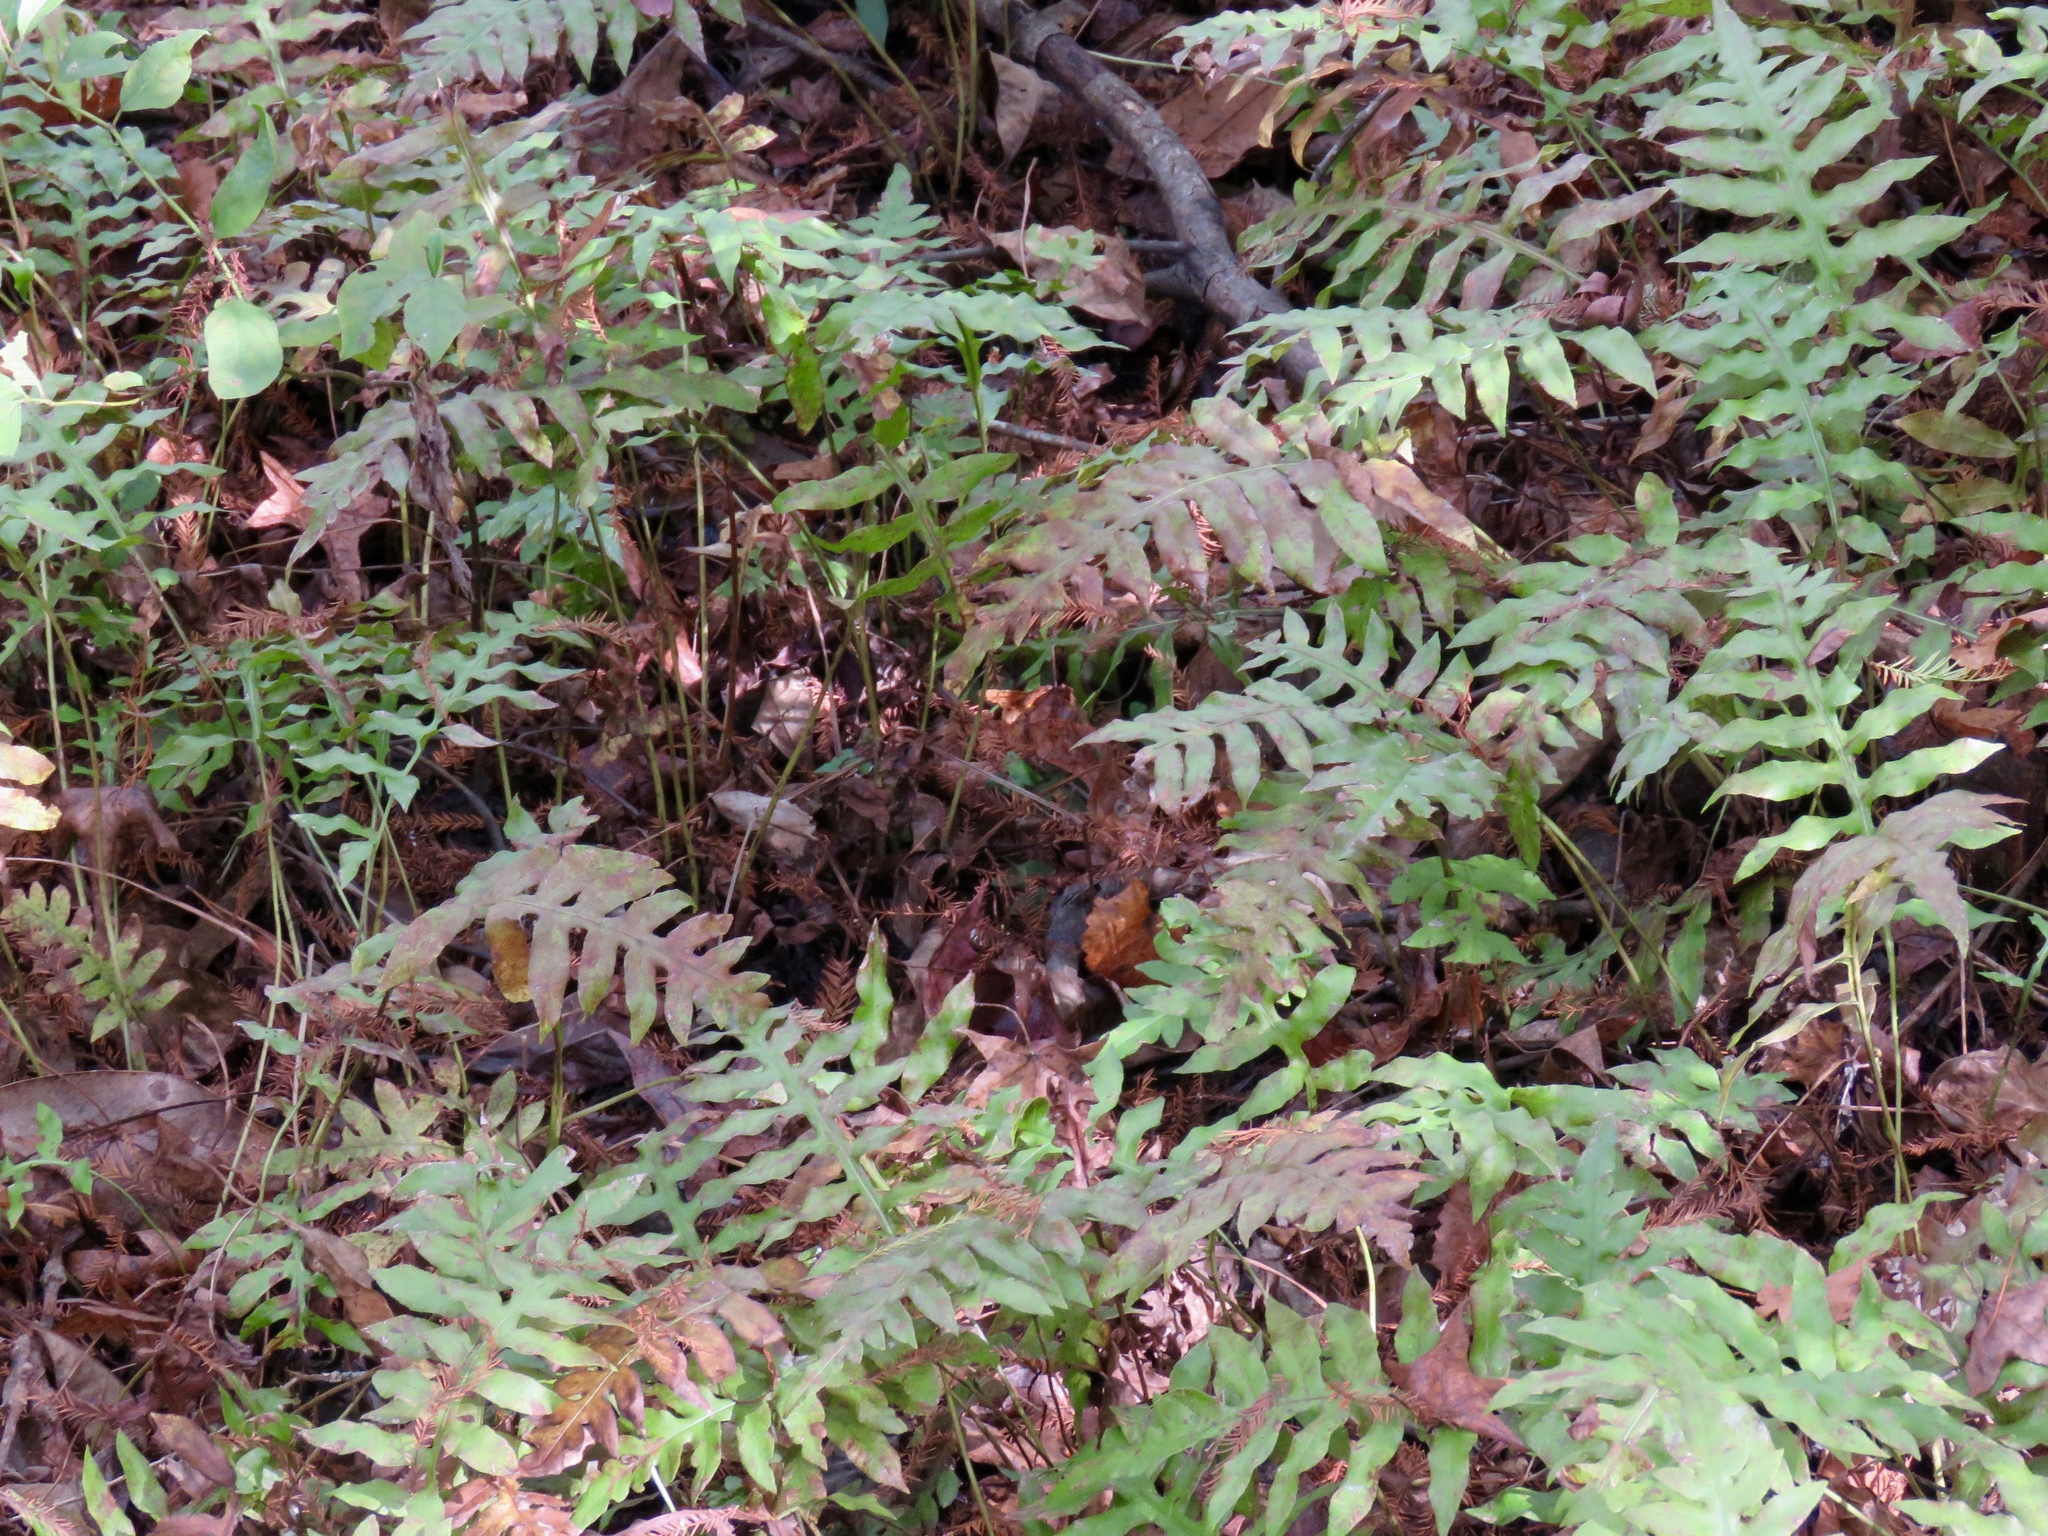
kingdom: Plantae
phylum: Tracheophyta
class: Polypodiopsida
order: Polypodiales
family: Blechnaceae
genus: Lorinseria
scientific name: Lorinseria areolata
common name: Dwarf chain fern
